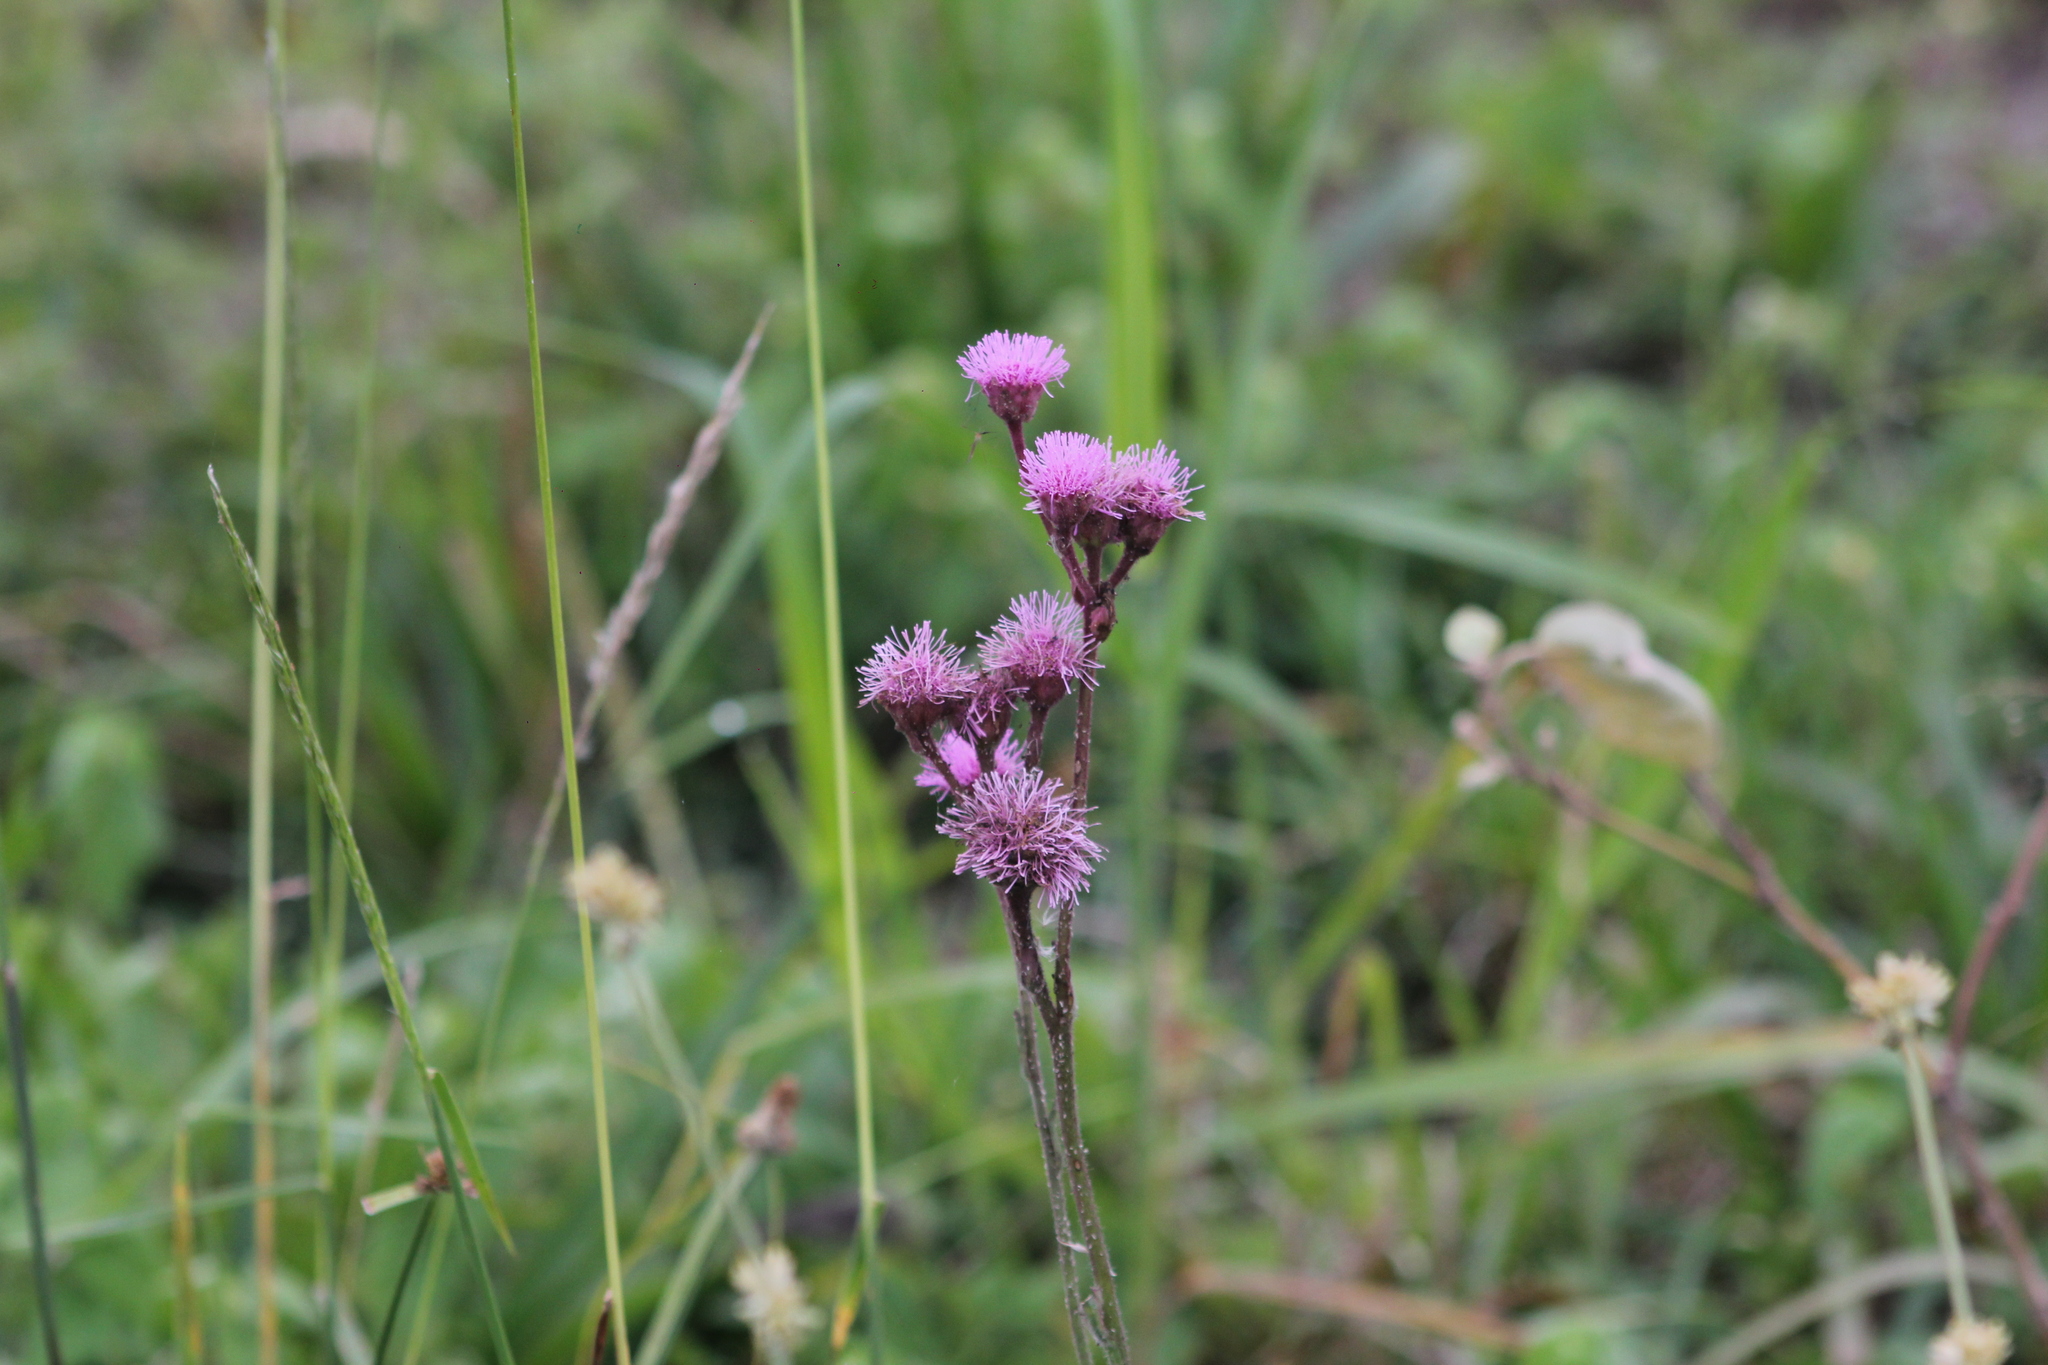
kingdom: Plantae
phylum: Tracheophyta
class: Magnoliopsida
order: Asterales
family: Asteraceae
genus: Campuloclinium
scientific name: Campuloclinium macrocephalum
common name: Pompomweed
